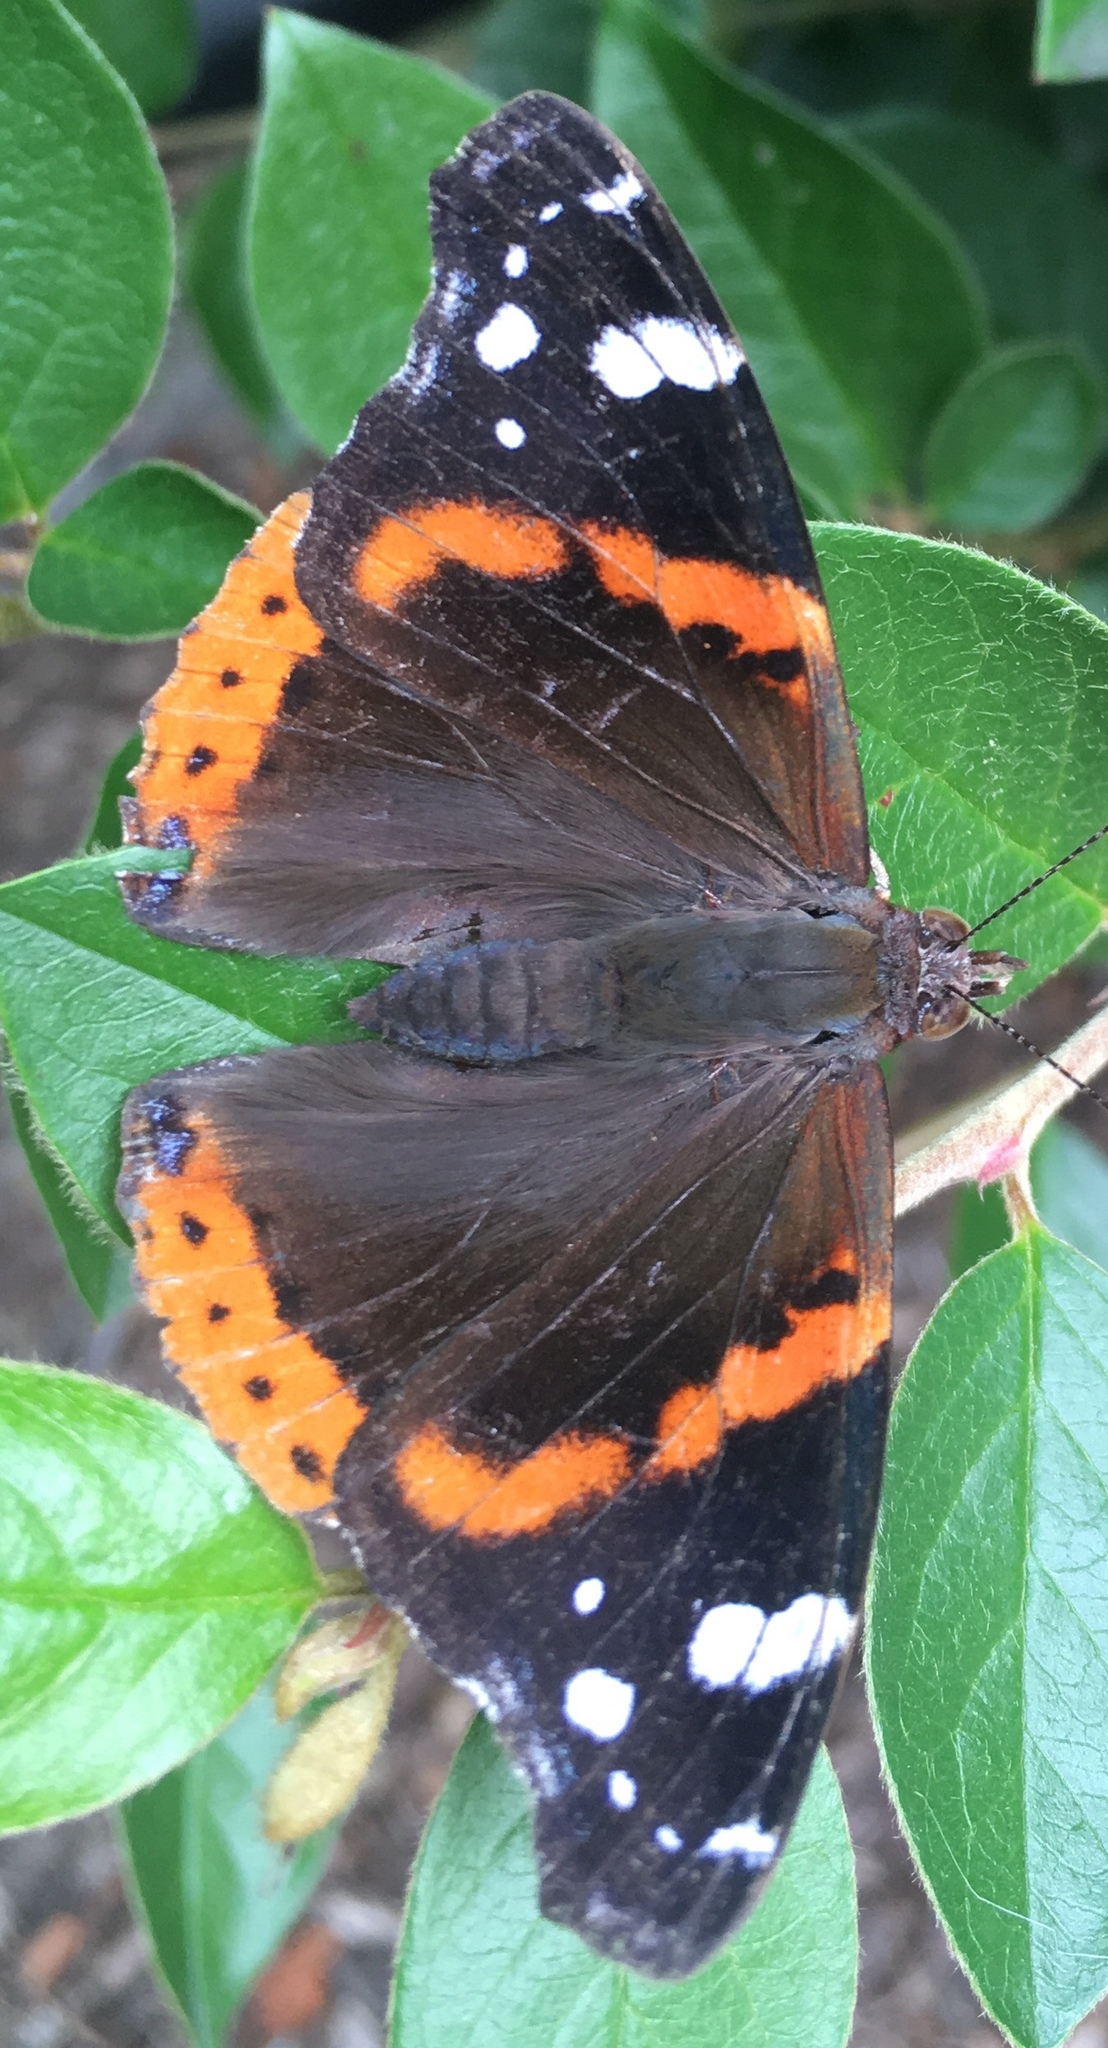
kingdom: Animalia
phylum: Arthropoda
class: Insecta
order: Lepidoptera
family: Nymphalidae
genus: Vanessa
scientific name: Vanessa atalanta
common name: Red admiral
